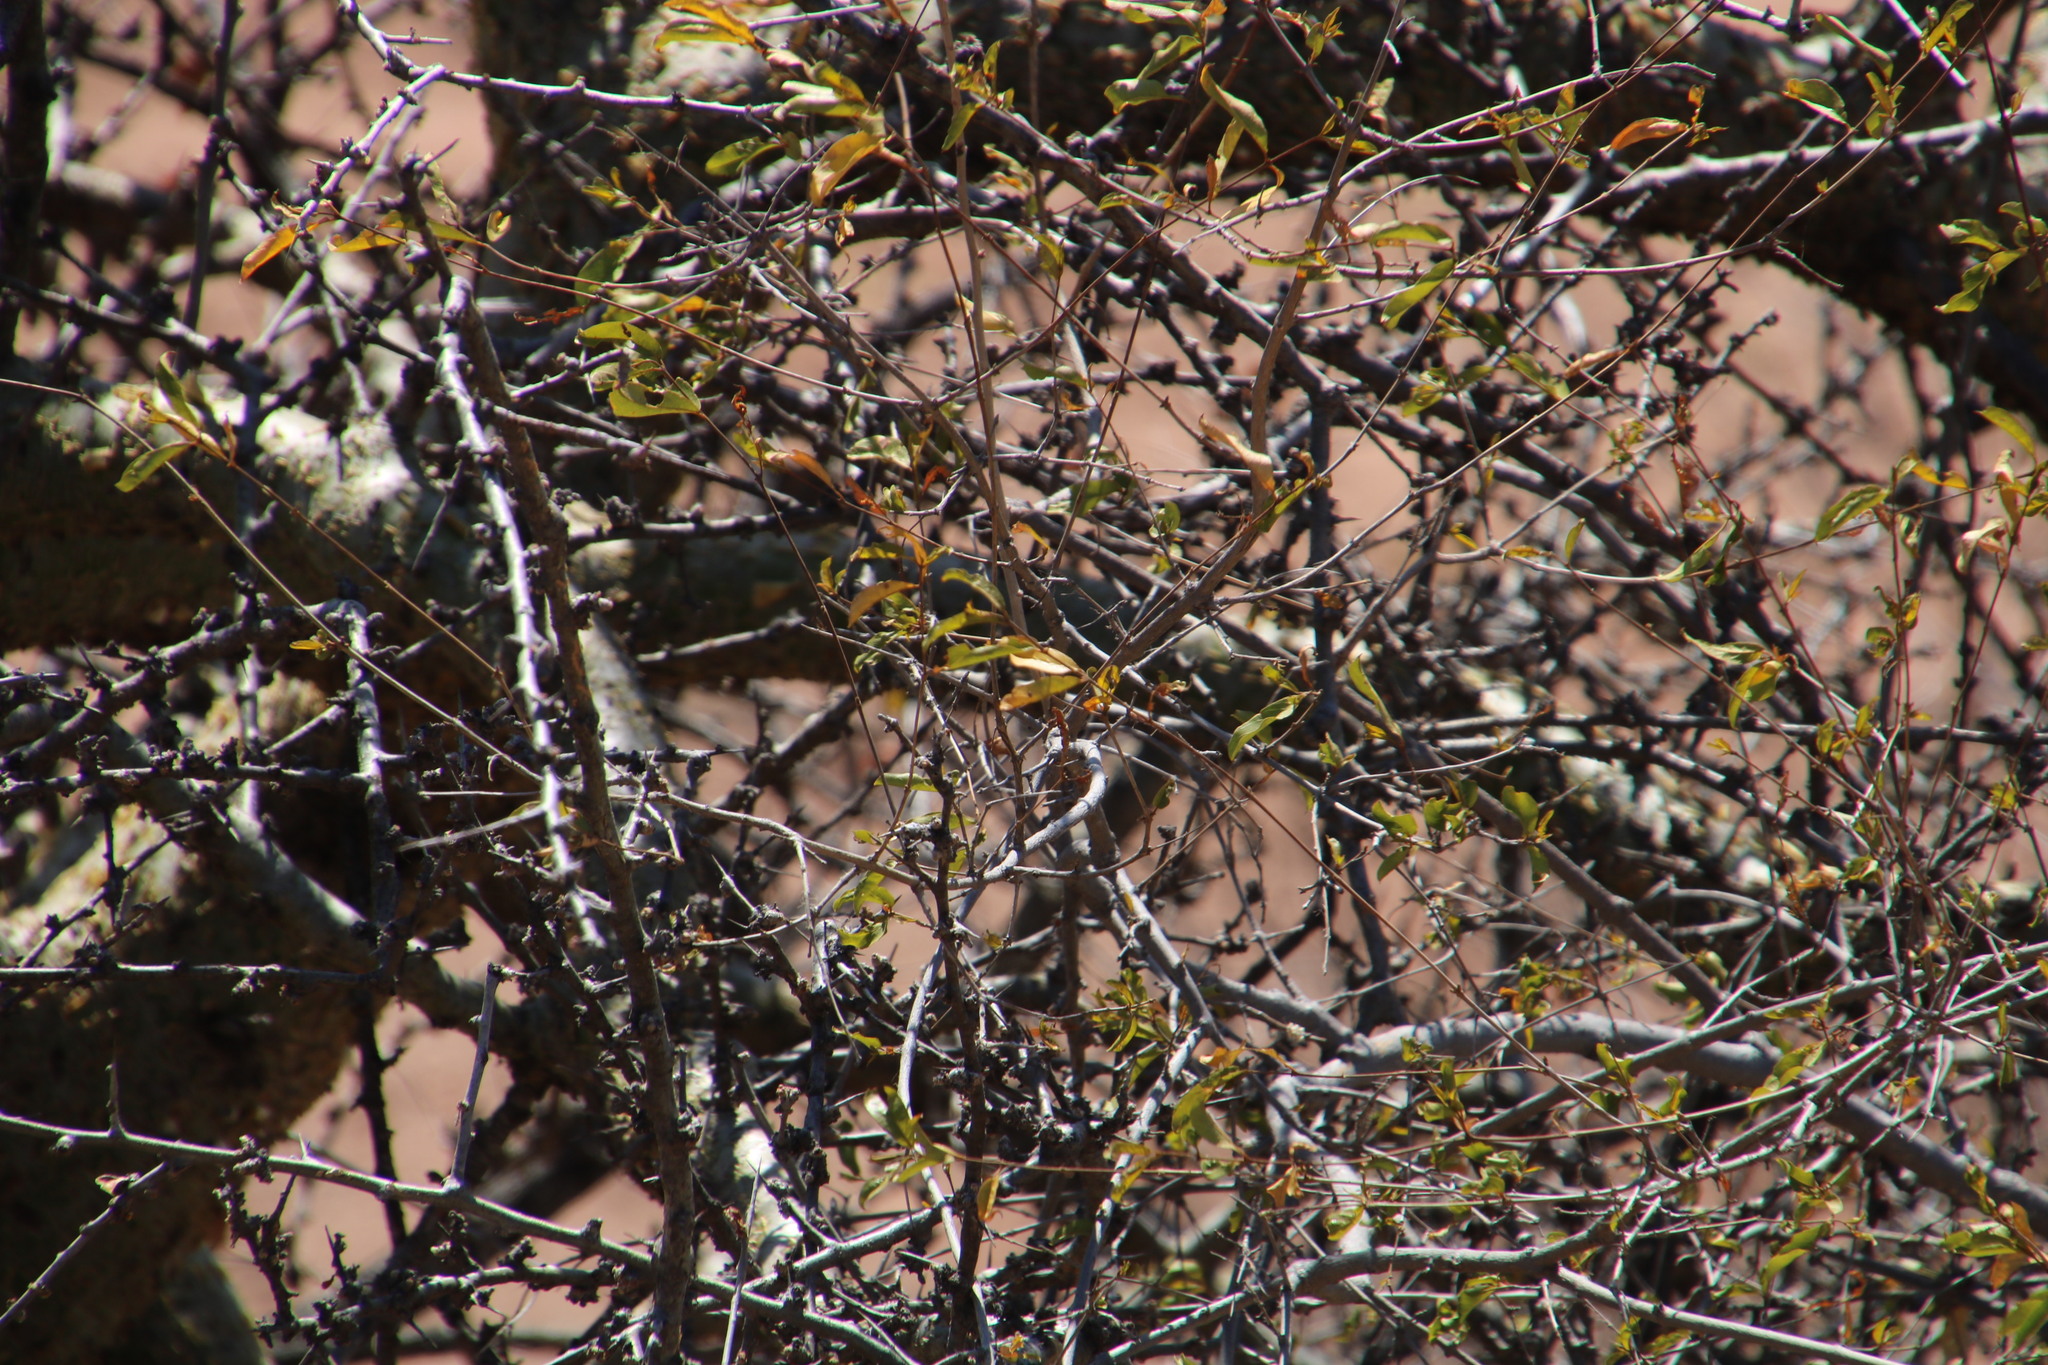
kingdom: Plantae
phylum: Tracheophyta
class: Magnoliopsida
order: Myrtales
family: Combretaceae
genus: Combretum
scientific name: Combretum apiculatum
